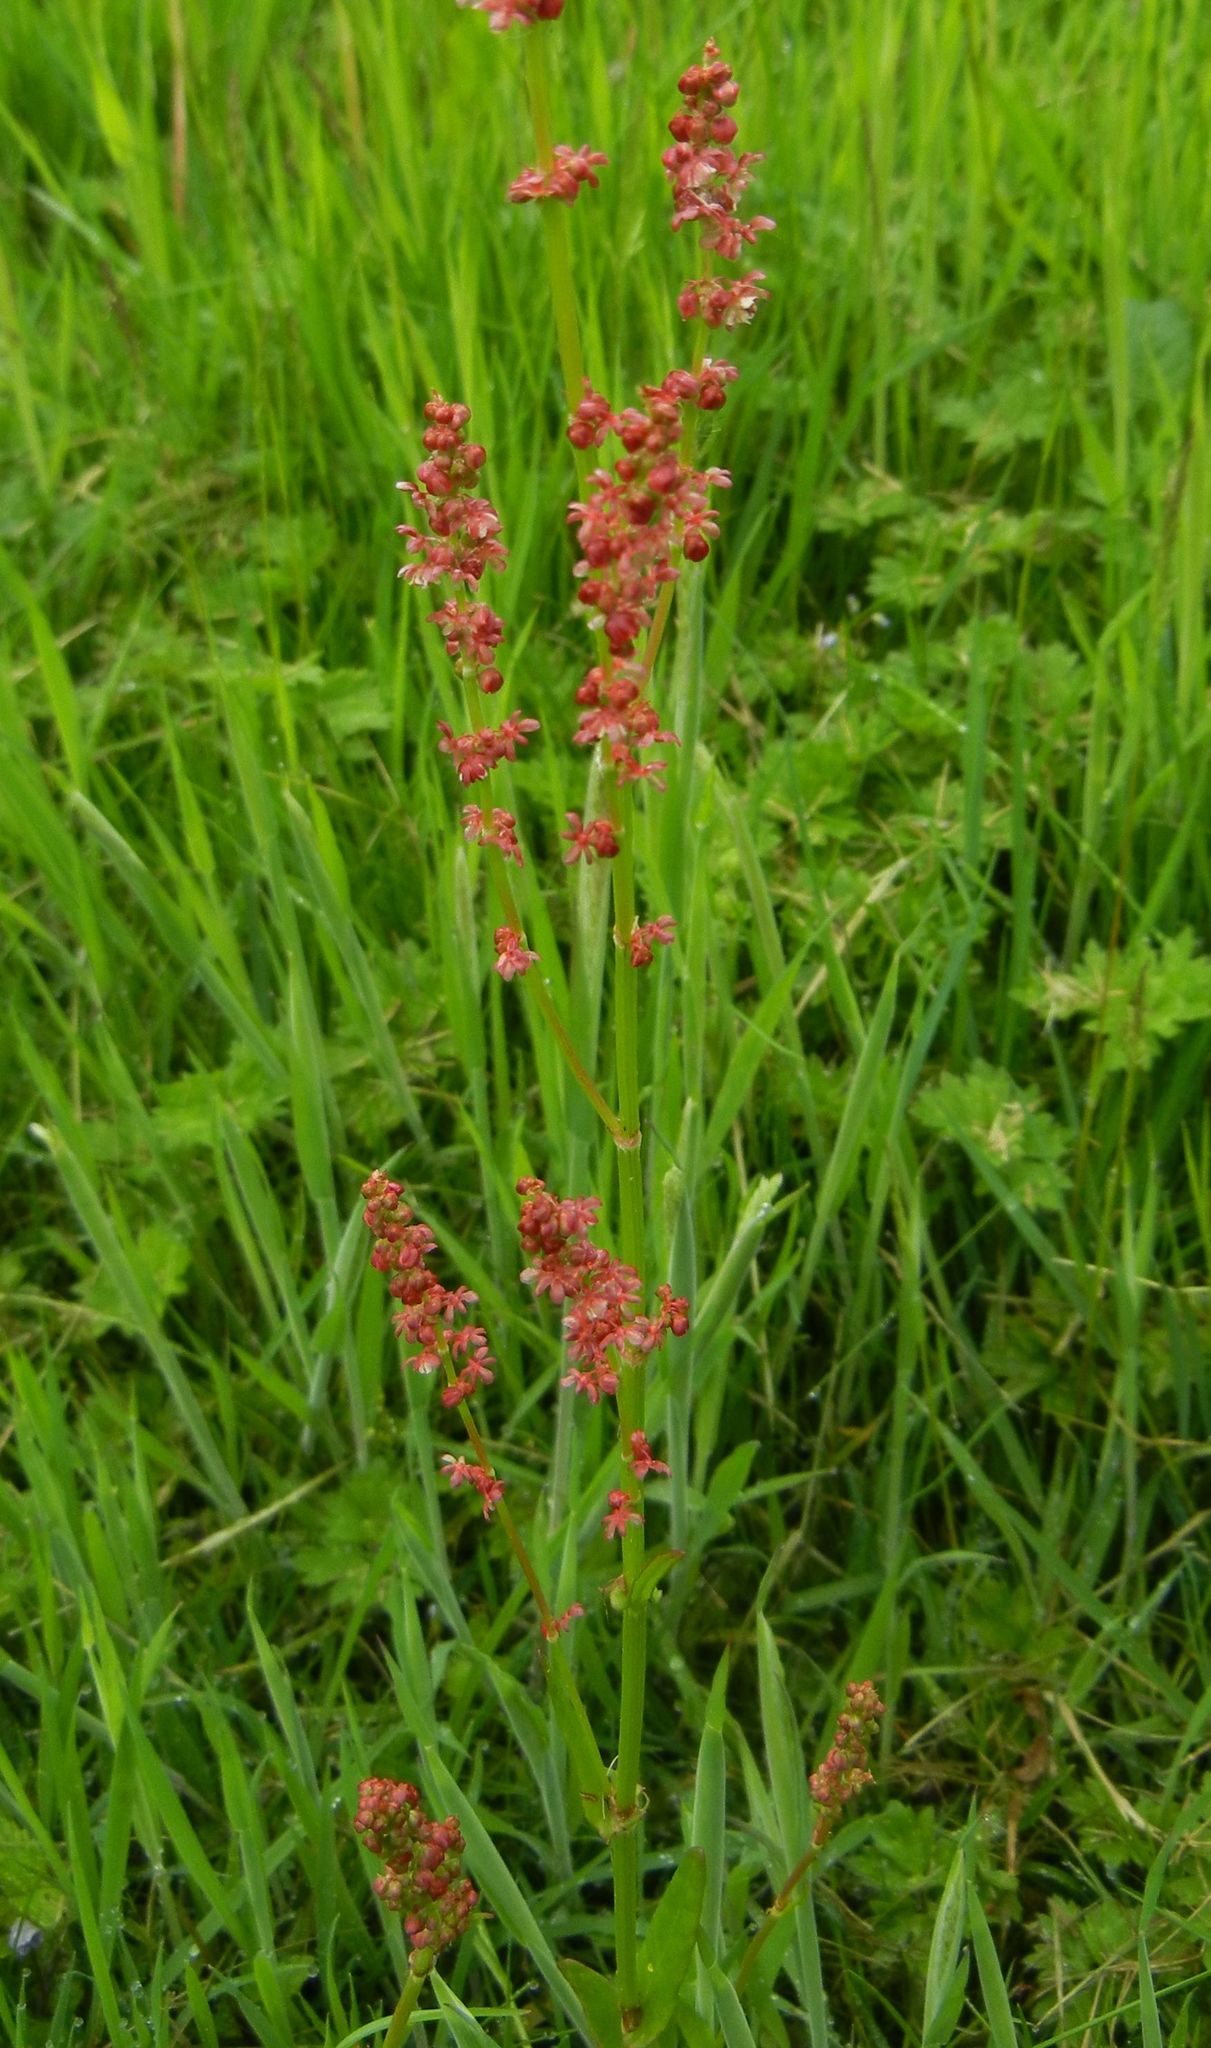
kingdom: Plantae
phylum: Tracheophyta
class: Magnoliopsida
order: Caryophyllales
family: Polygonaceae
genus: Rumex
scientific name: Rumex acetosa
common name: Garden sorrel
